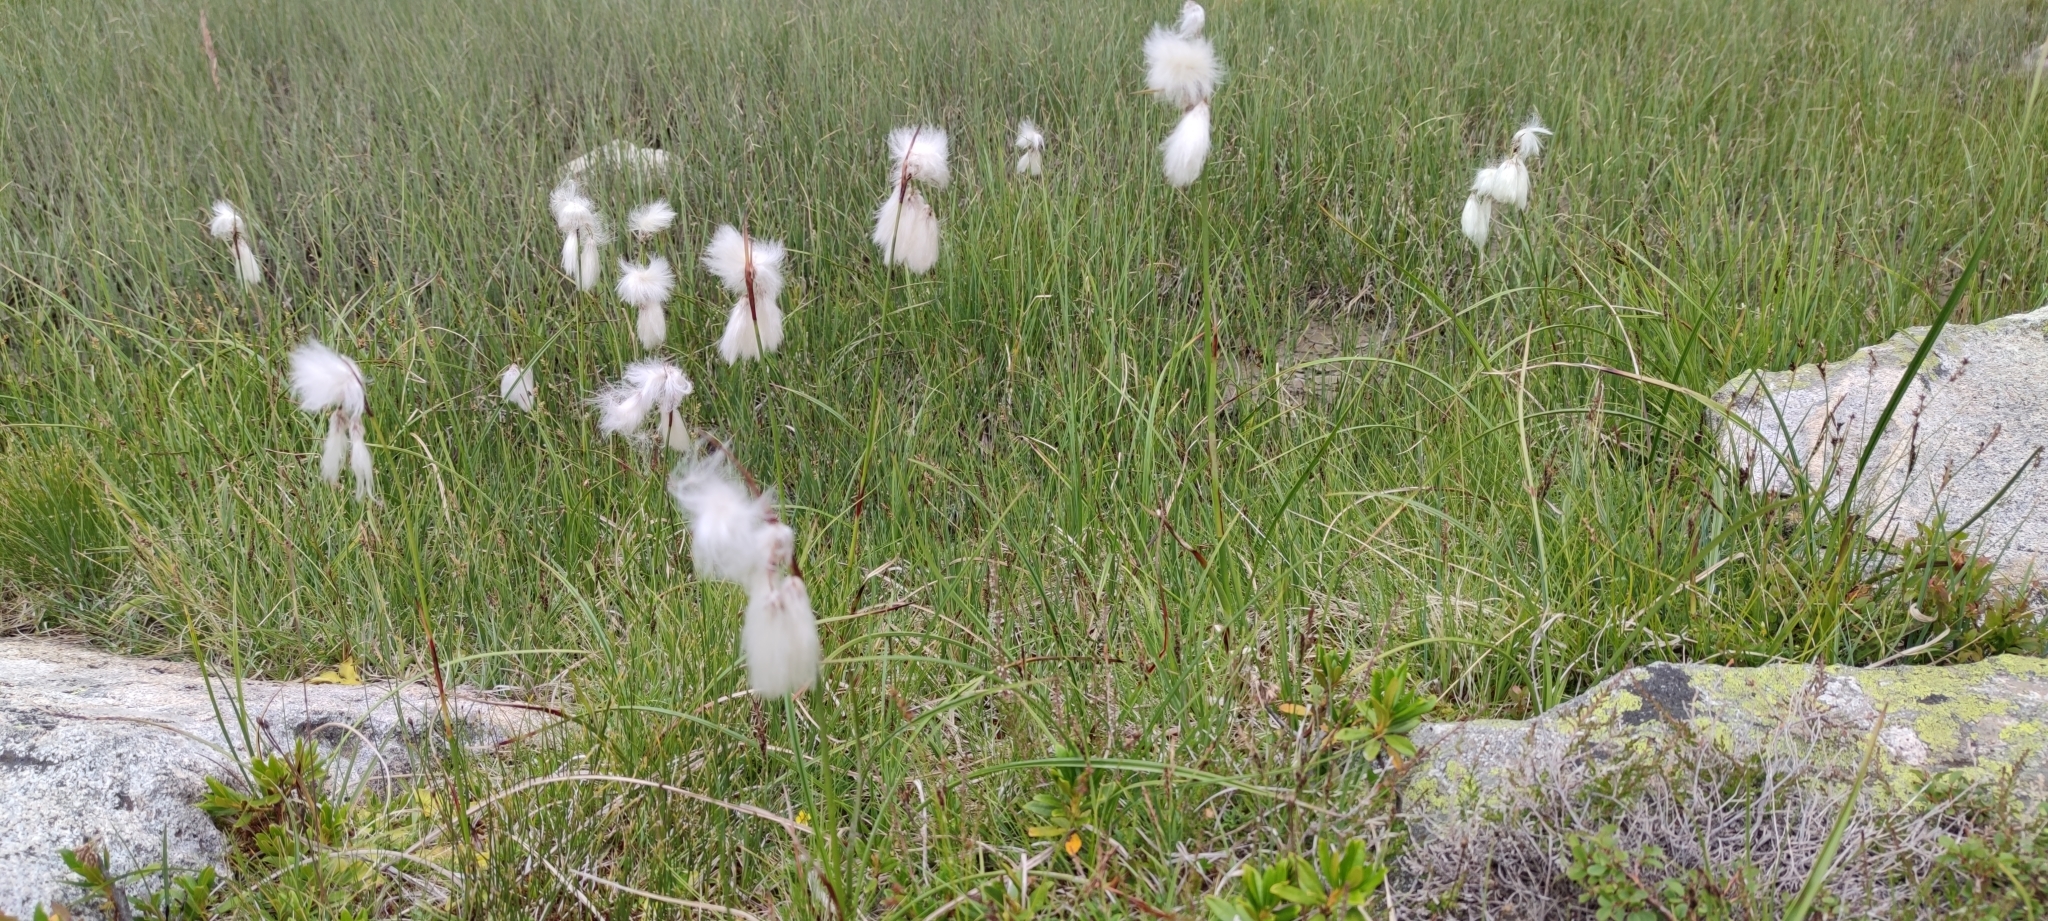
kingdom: Plantae
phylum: Tracheophyta
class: Liliopsida
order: Poales
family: Cyperaceae
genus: Eriophorum
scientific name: Eriophorum angustifolium
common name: Common cottongrass
